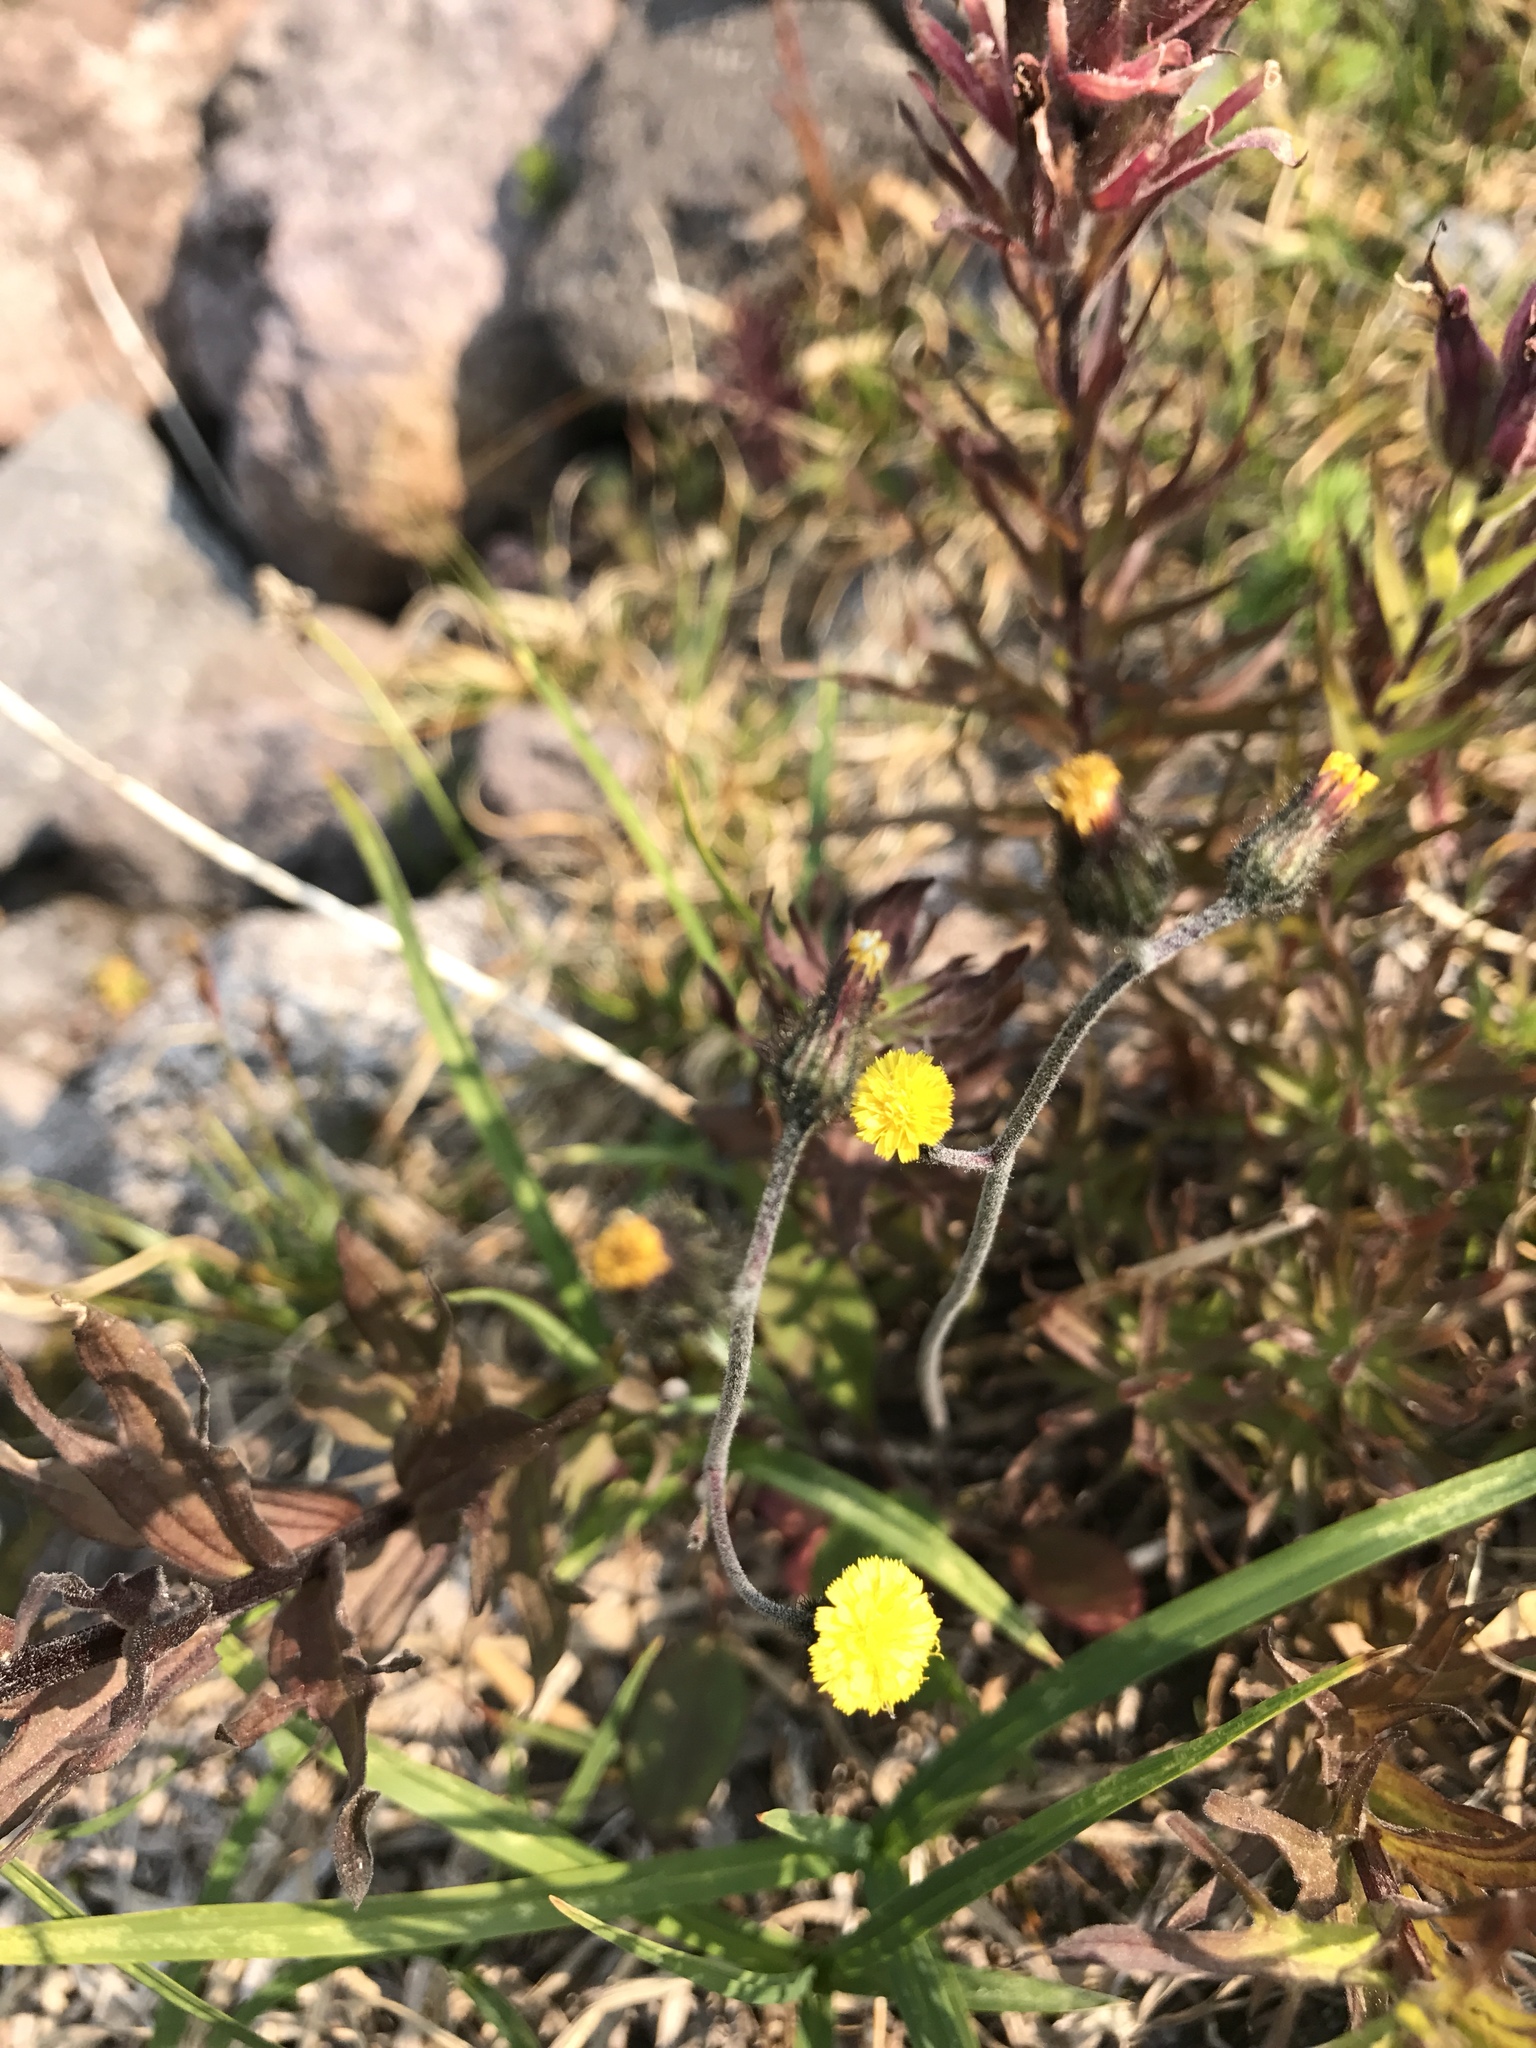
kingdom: Plantae
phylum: Tracheophyta
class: Magnoliopsida
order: Asterales
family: Asteraceae
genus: Hieracium
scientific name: Hieracium triste
